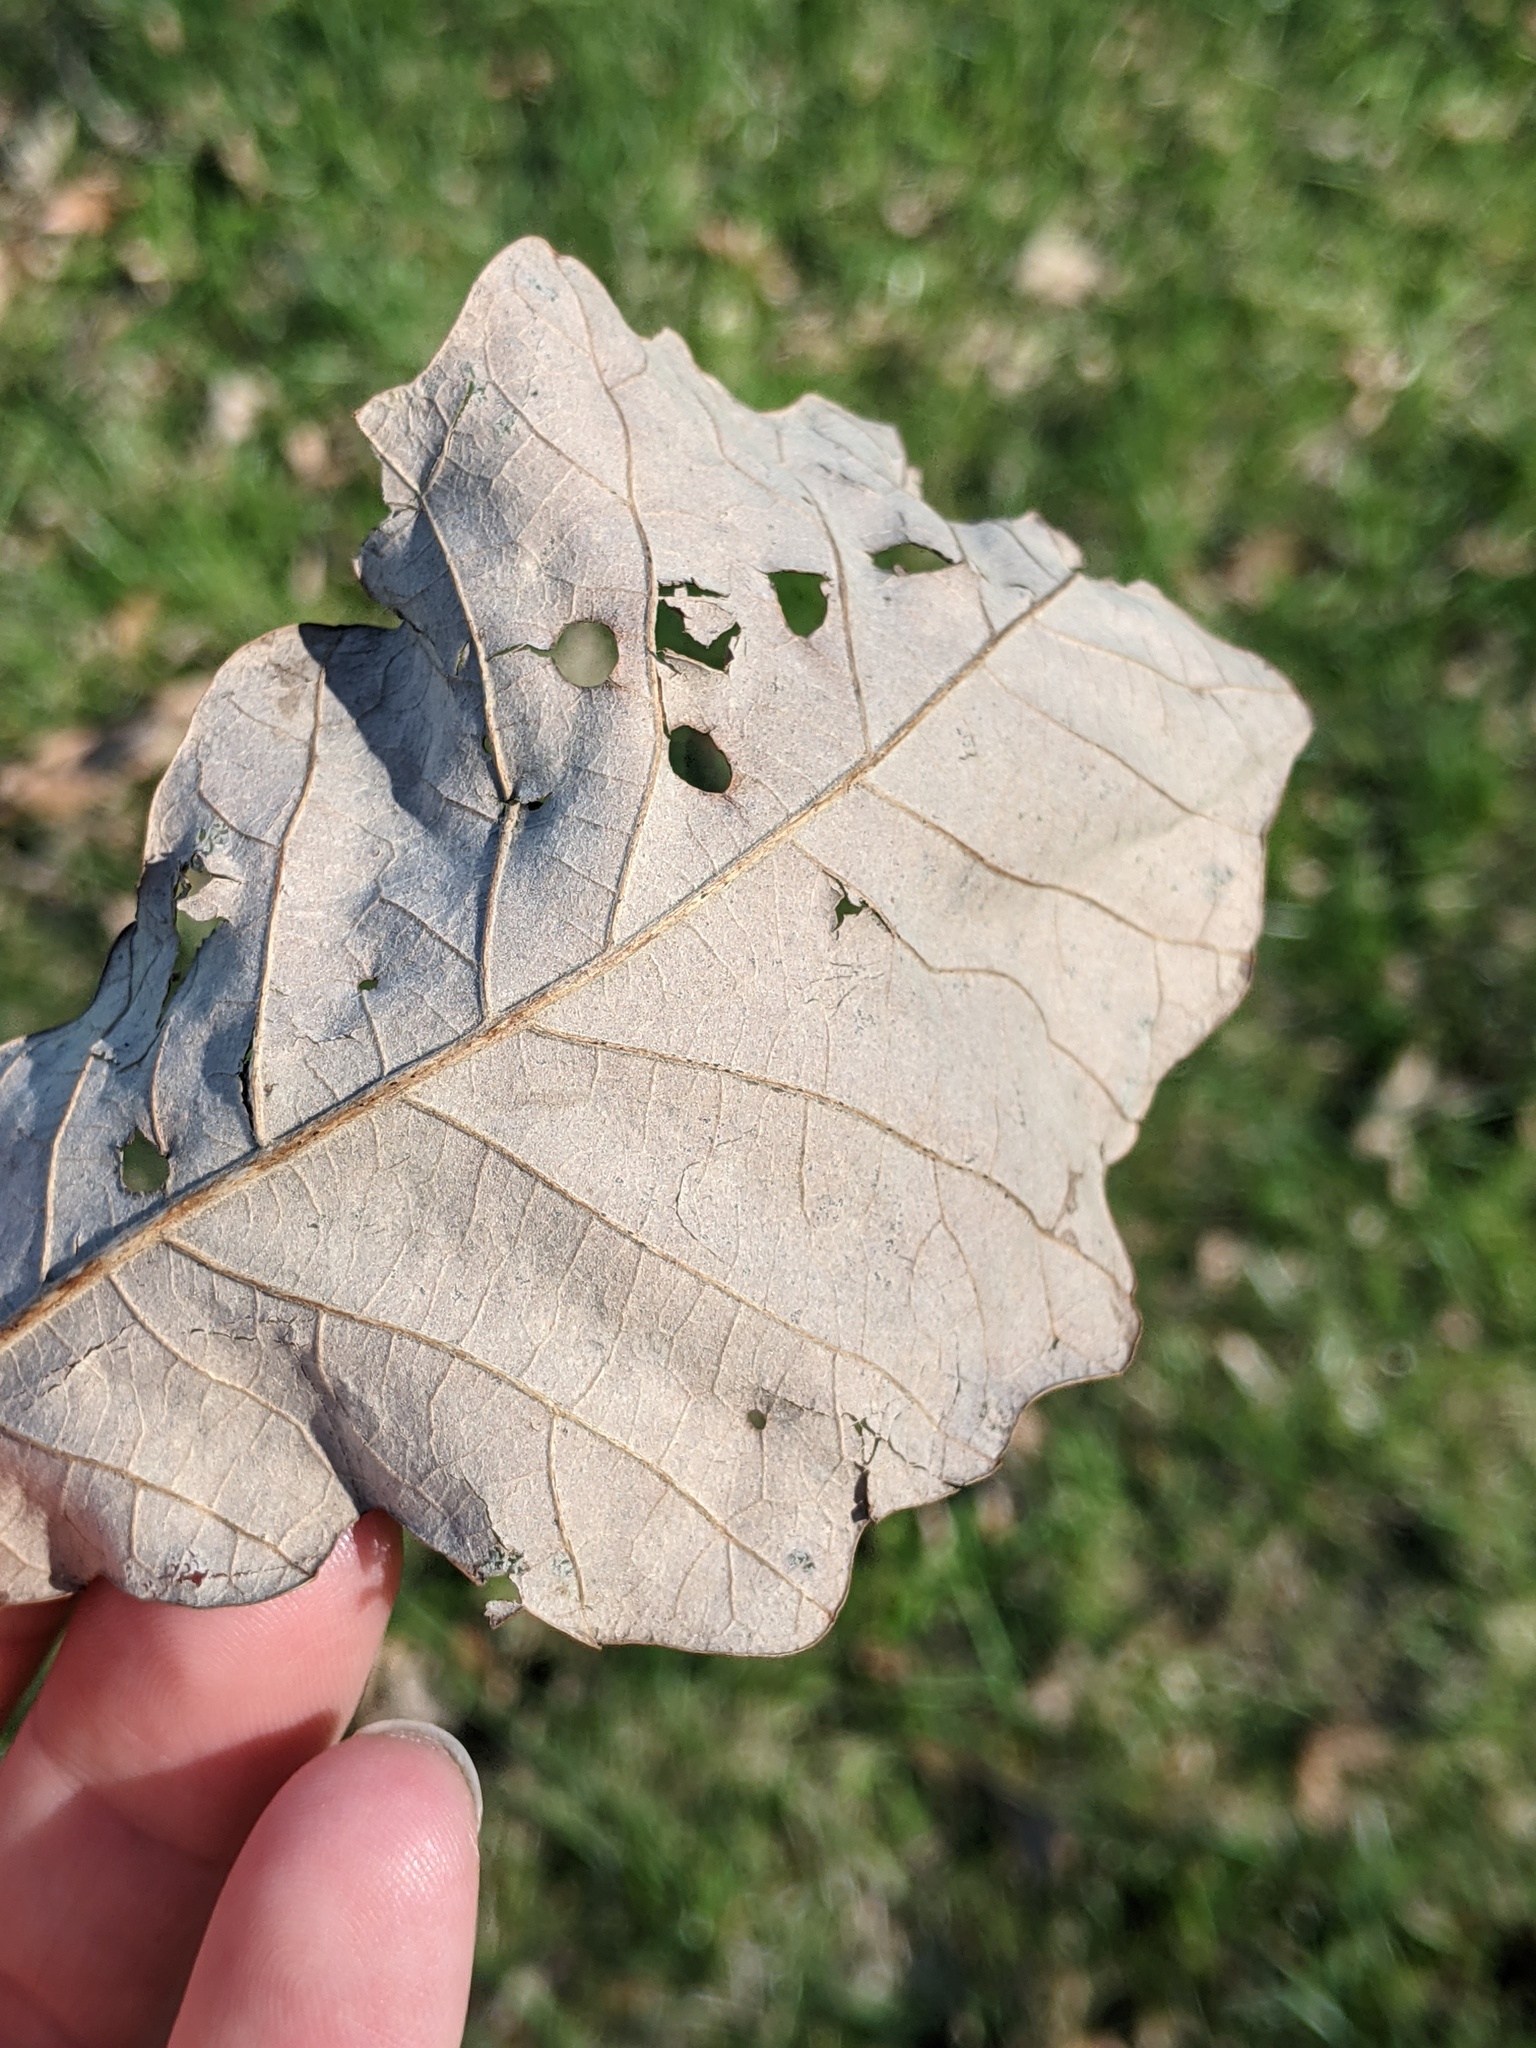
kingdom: Animalia
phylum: Arthropoda
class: Insecta
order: Hymenoptera
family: Cynipidae
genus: Acraspis
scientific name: Acraspis quercushirta
